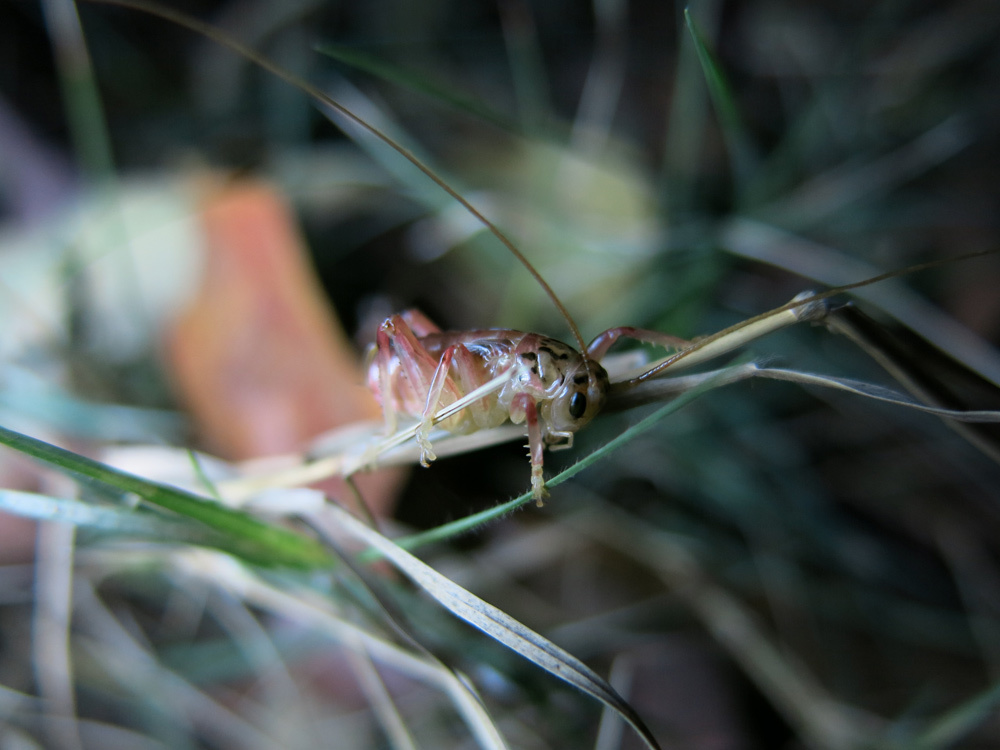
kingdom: Animalia
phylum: Arthropoda
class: Insecta
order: Orthoptera
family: Gryllacrididae
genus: Stictogryllacris
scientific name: Stictogryllacris lyrata
